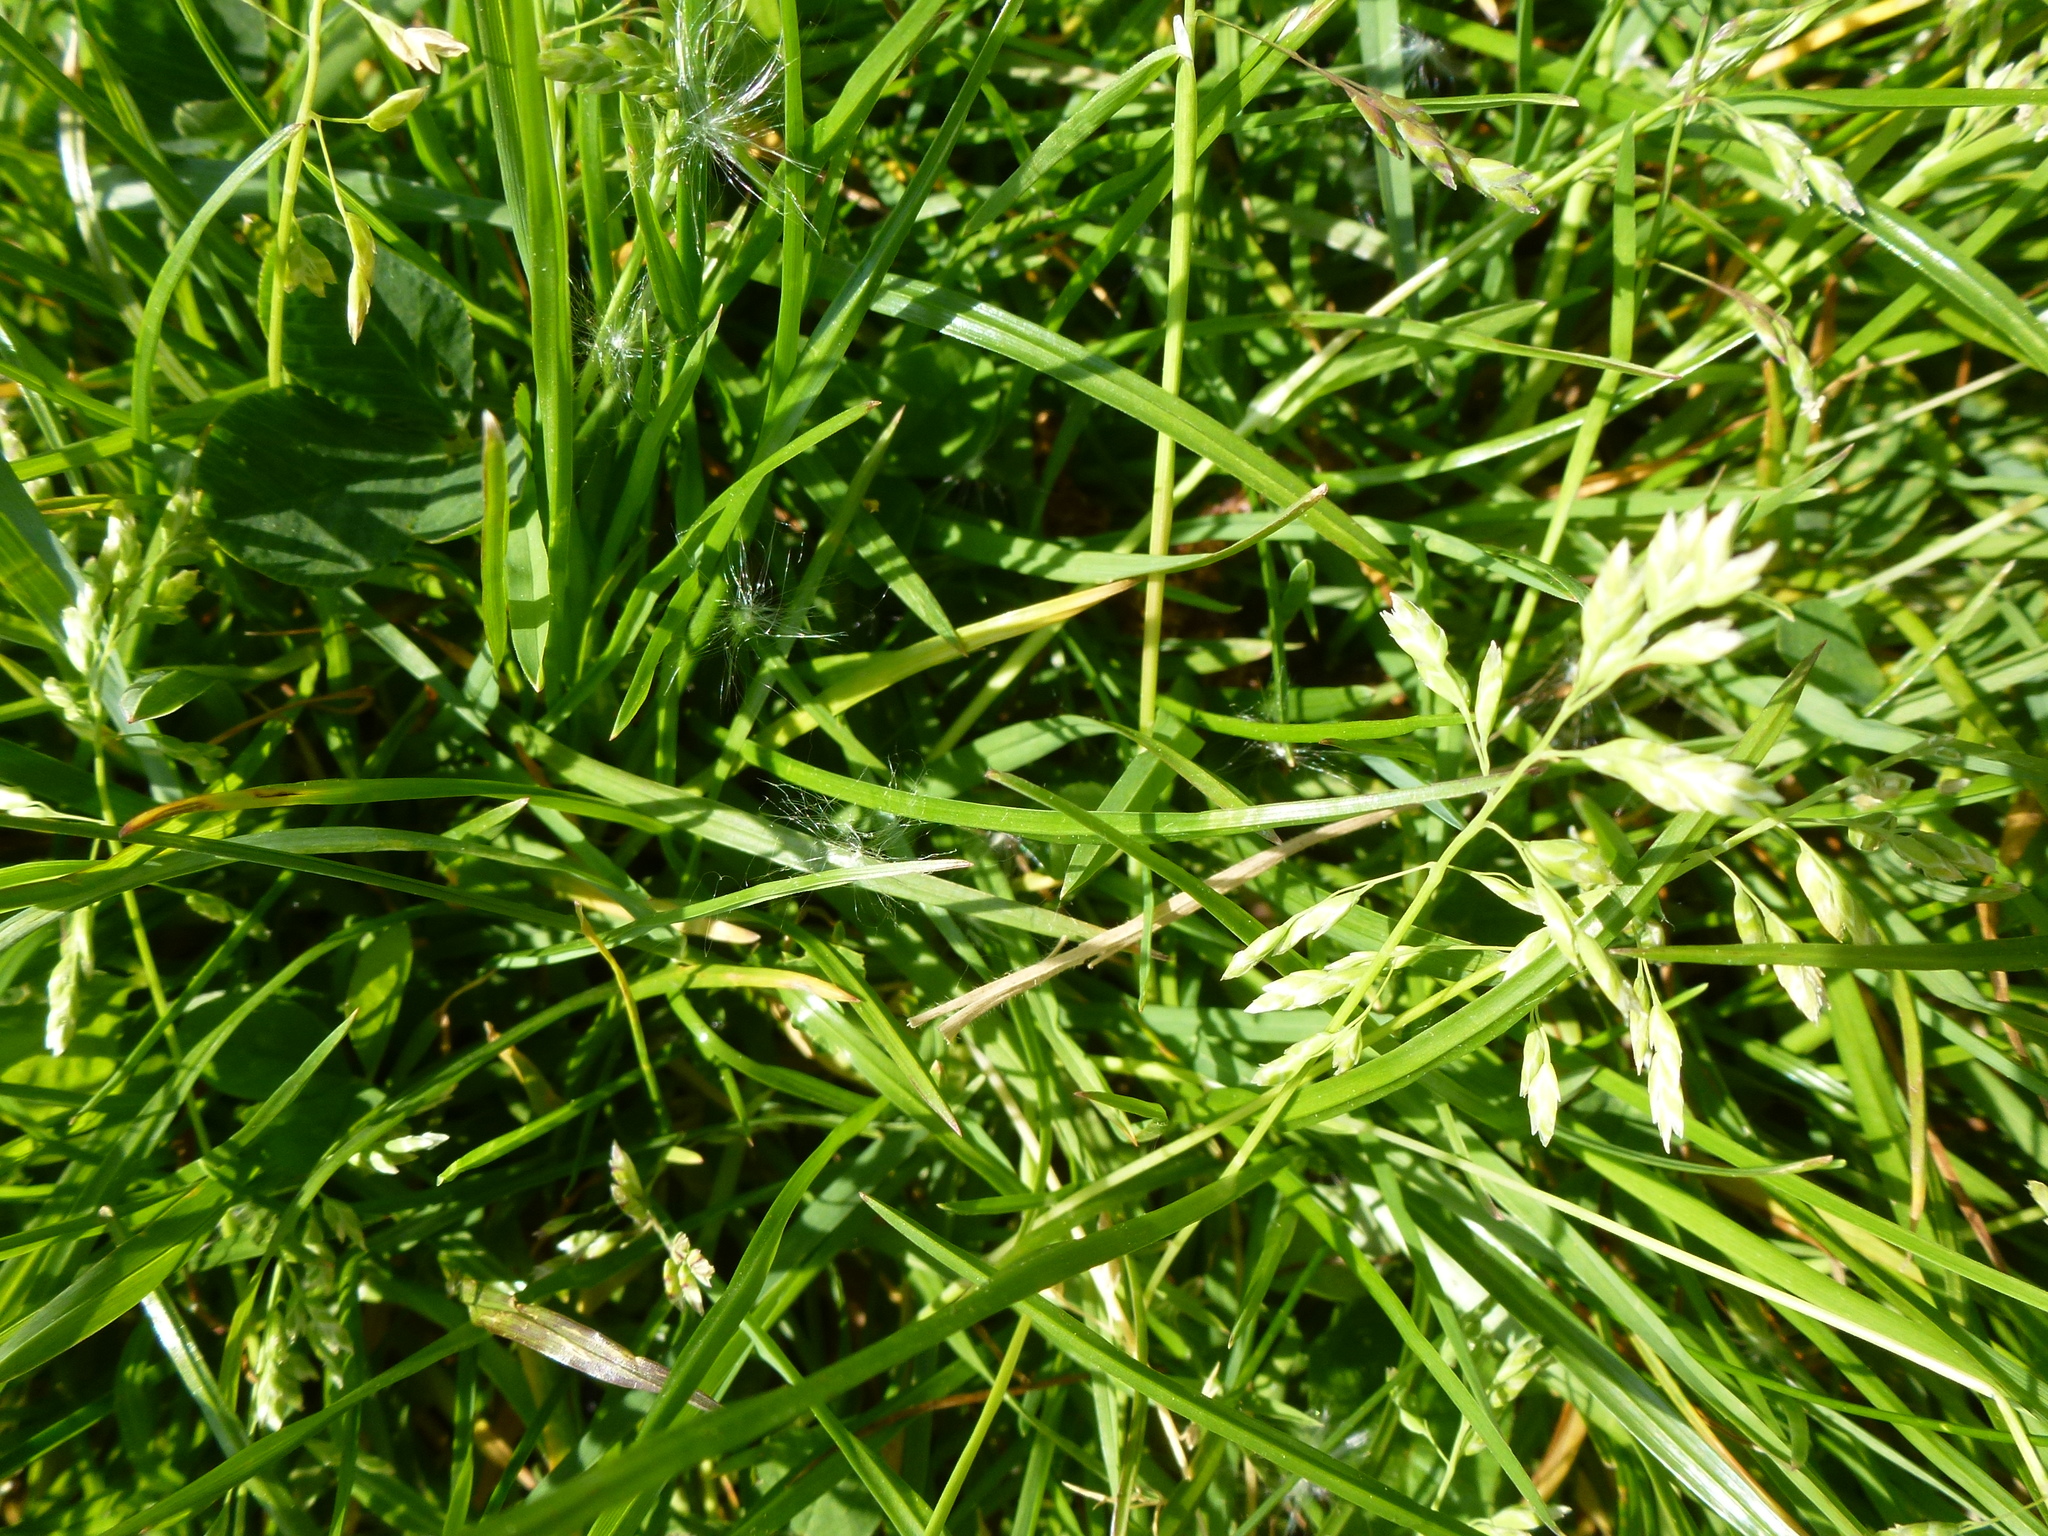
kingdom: Plantae
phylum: Tracheophyta
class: Liliopsida
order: Poales
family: Poaceae
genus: Poa
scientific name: Poa annua
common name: Annual bluegrass
